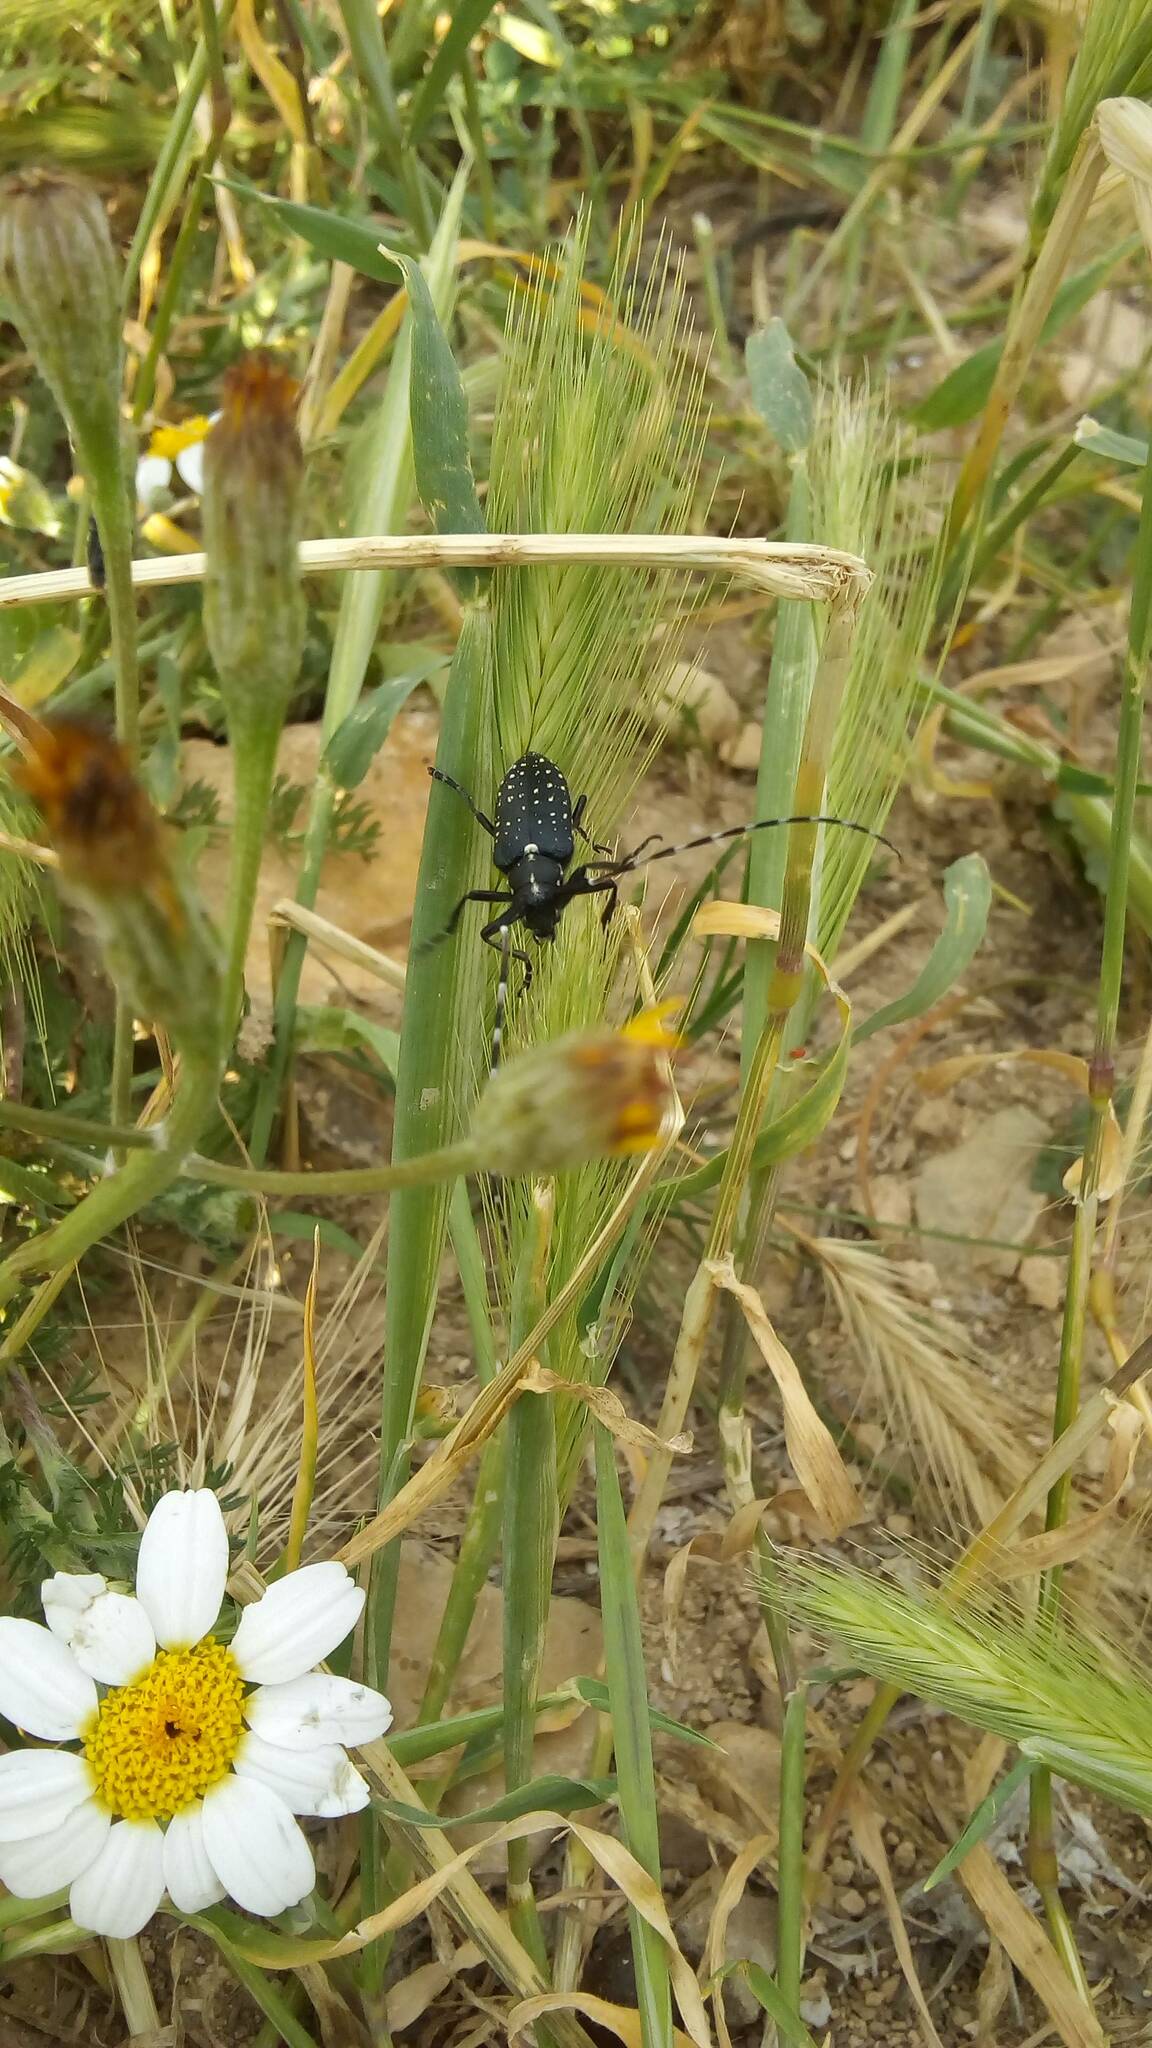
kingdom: Animalia
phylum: Arthropoda
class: Insecta
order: Coleoptera
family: Cerambycidae
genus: Agapanthia
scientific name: Agapanthia irrorata
